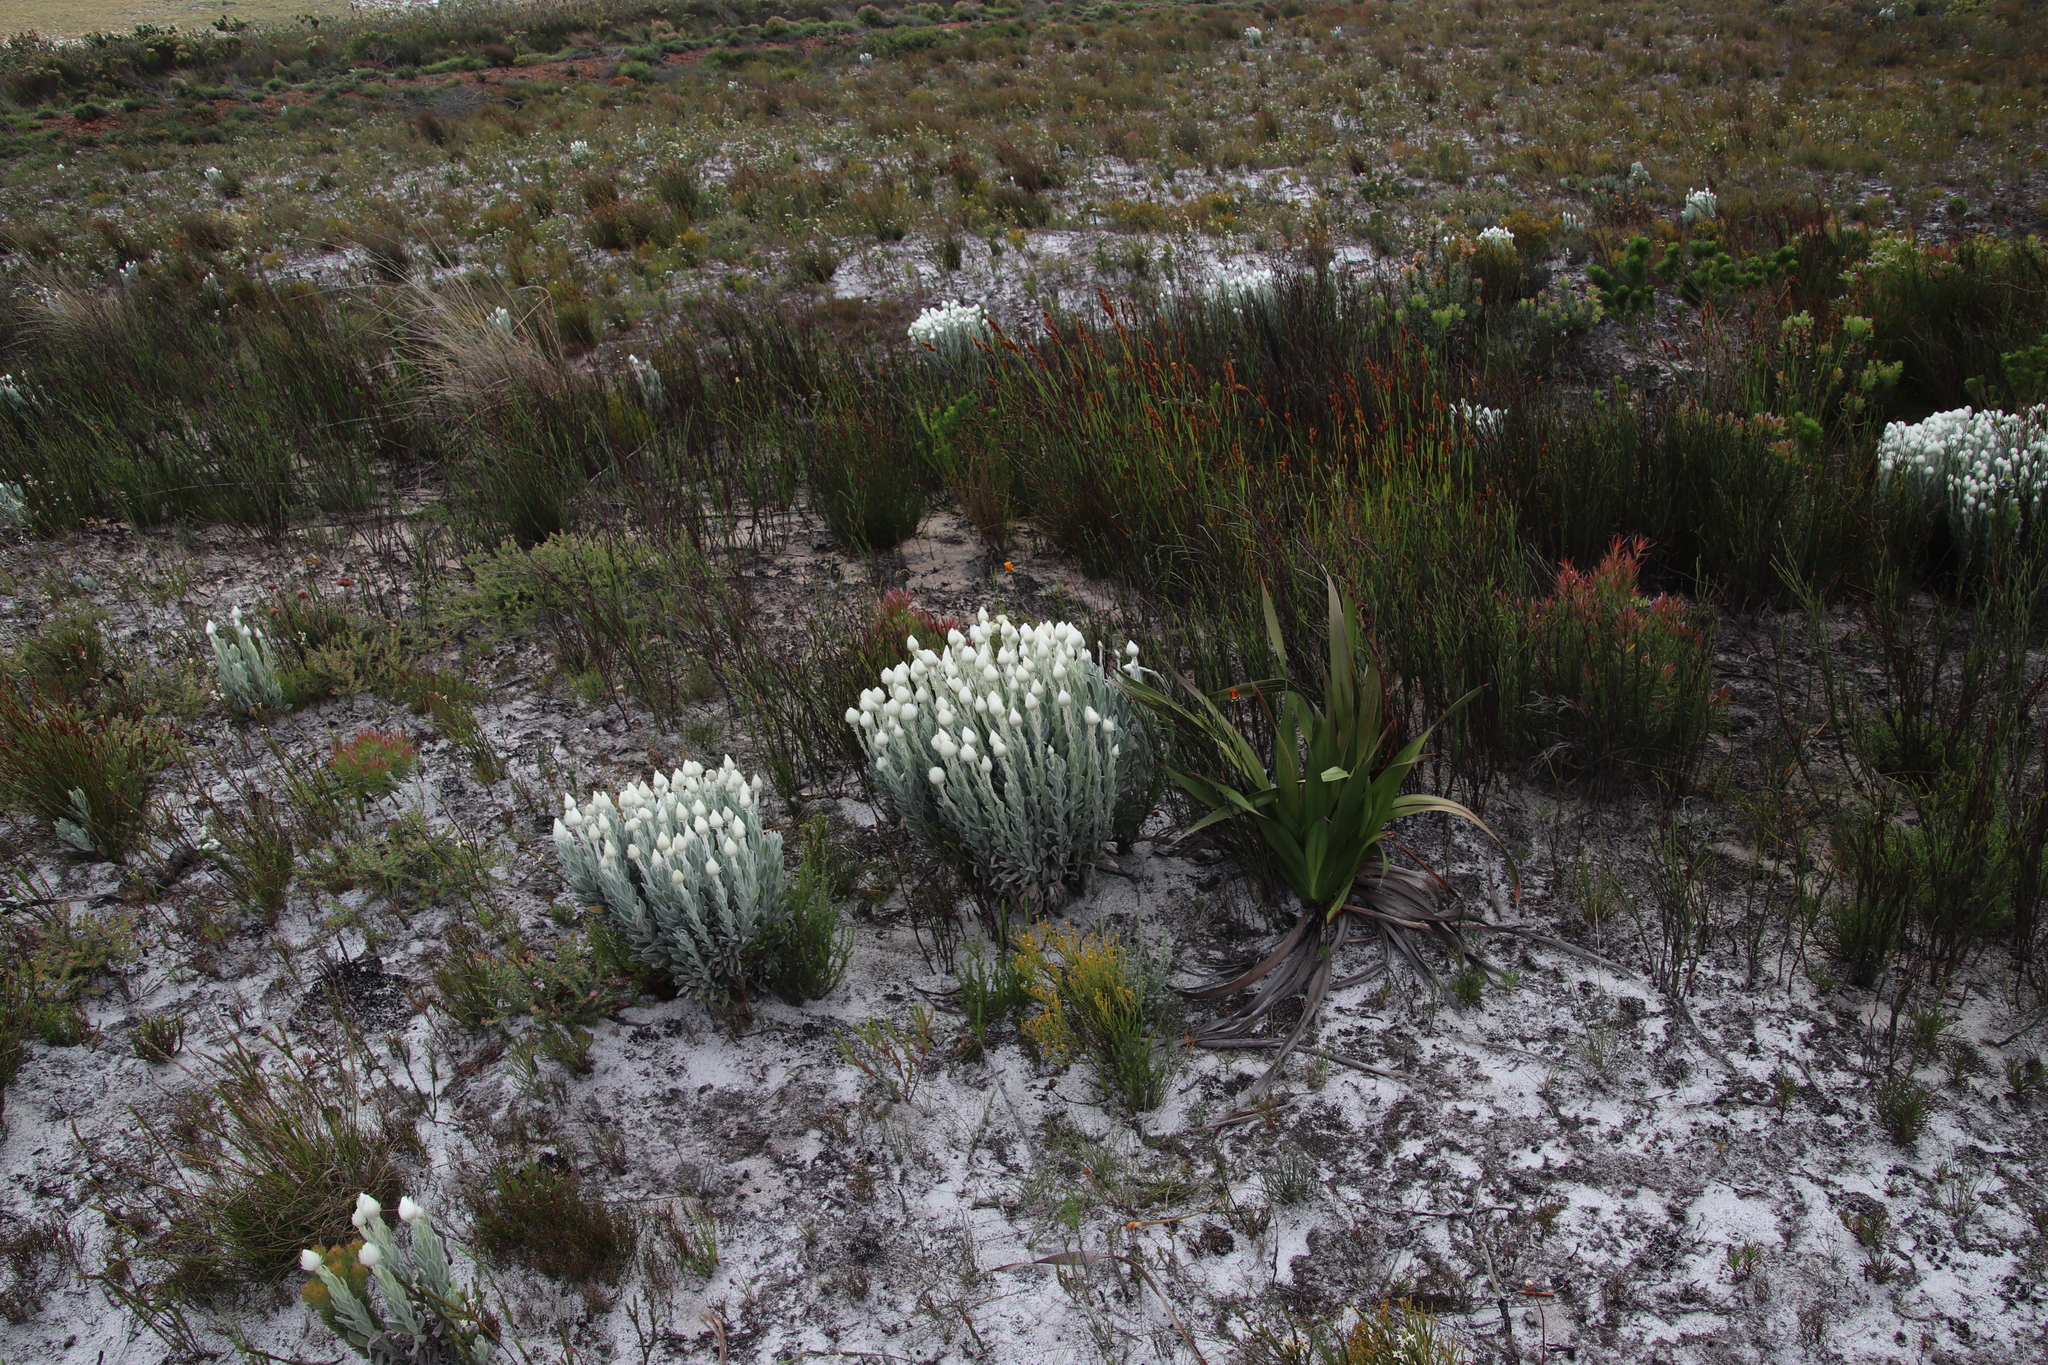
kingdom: Plantae
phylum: Tracheophyta
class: Magnoliopsida
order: Asterales
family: Asteraceae
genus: Syncarpha
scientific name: Syncarpha vestita
